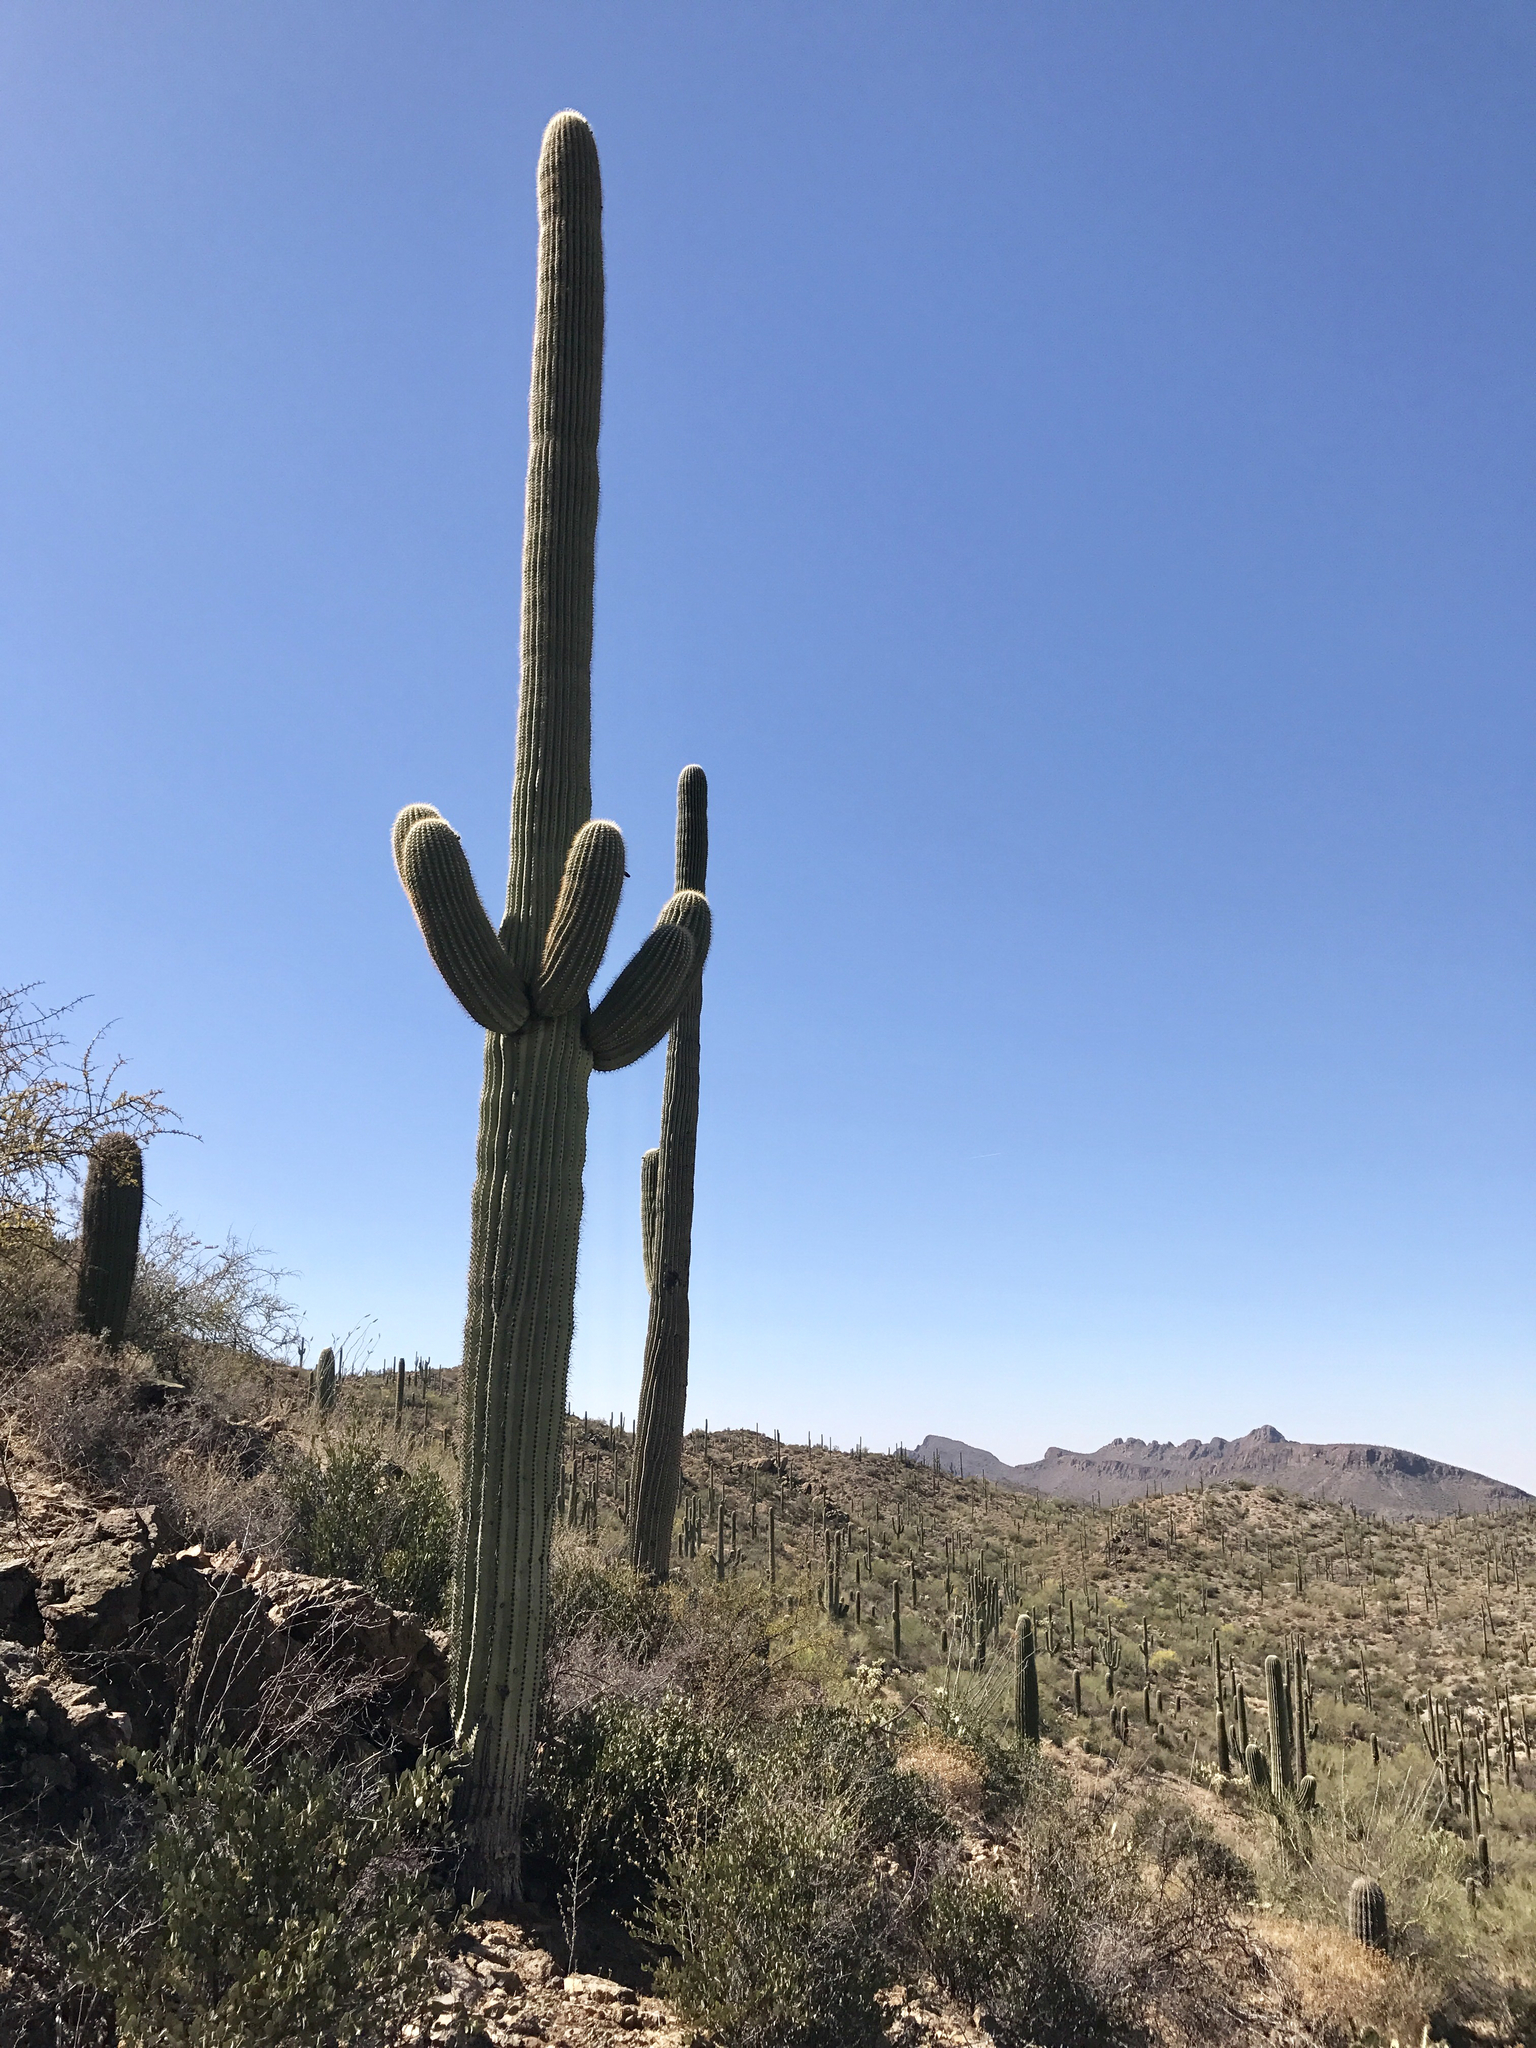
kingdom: Plantae
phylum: Tracheophyta
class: Magnoliopsida
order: Caryophyllales
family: Cactaceae
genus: Carnegiea
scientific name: Carnegiea gigantea
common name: Saguaro
